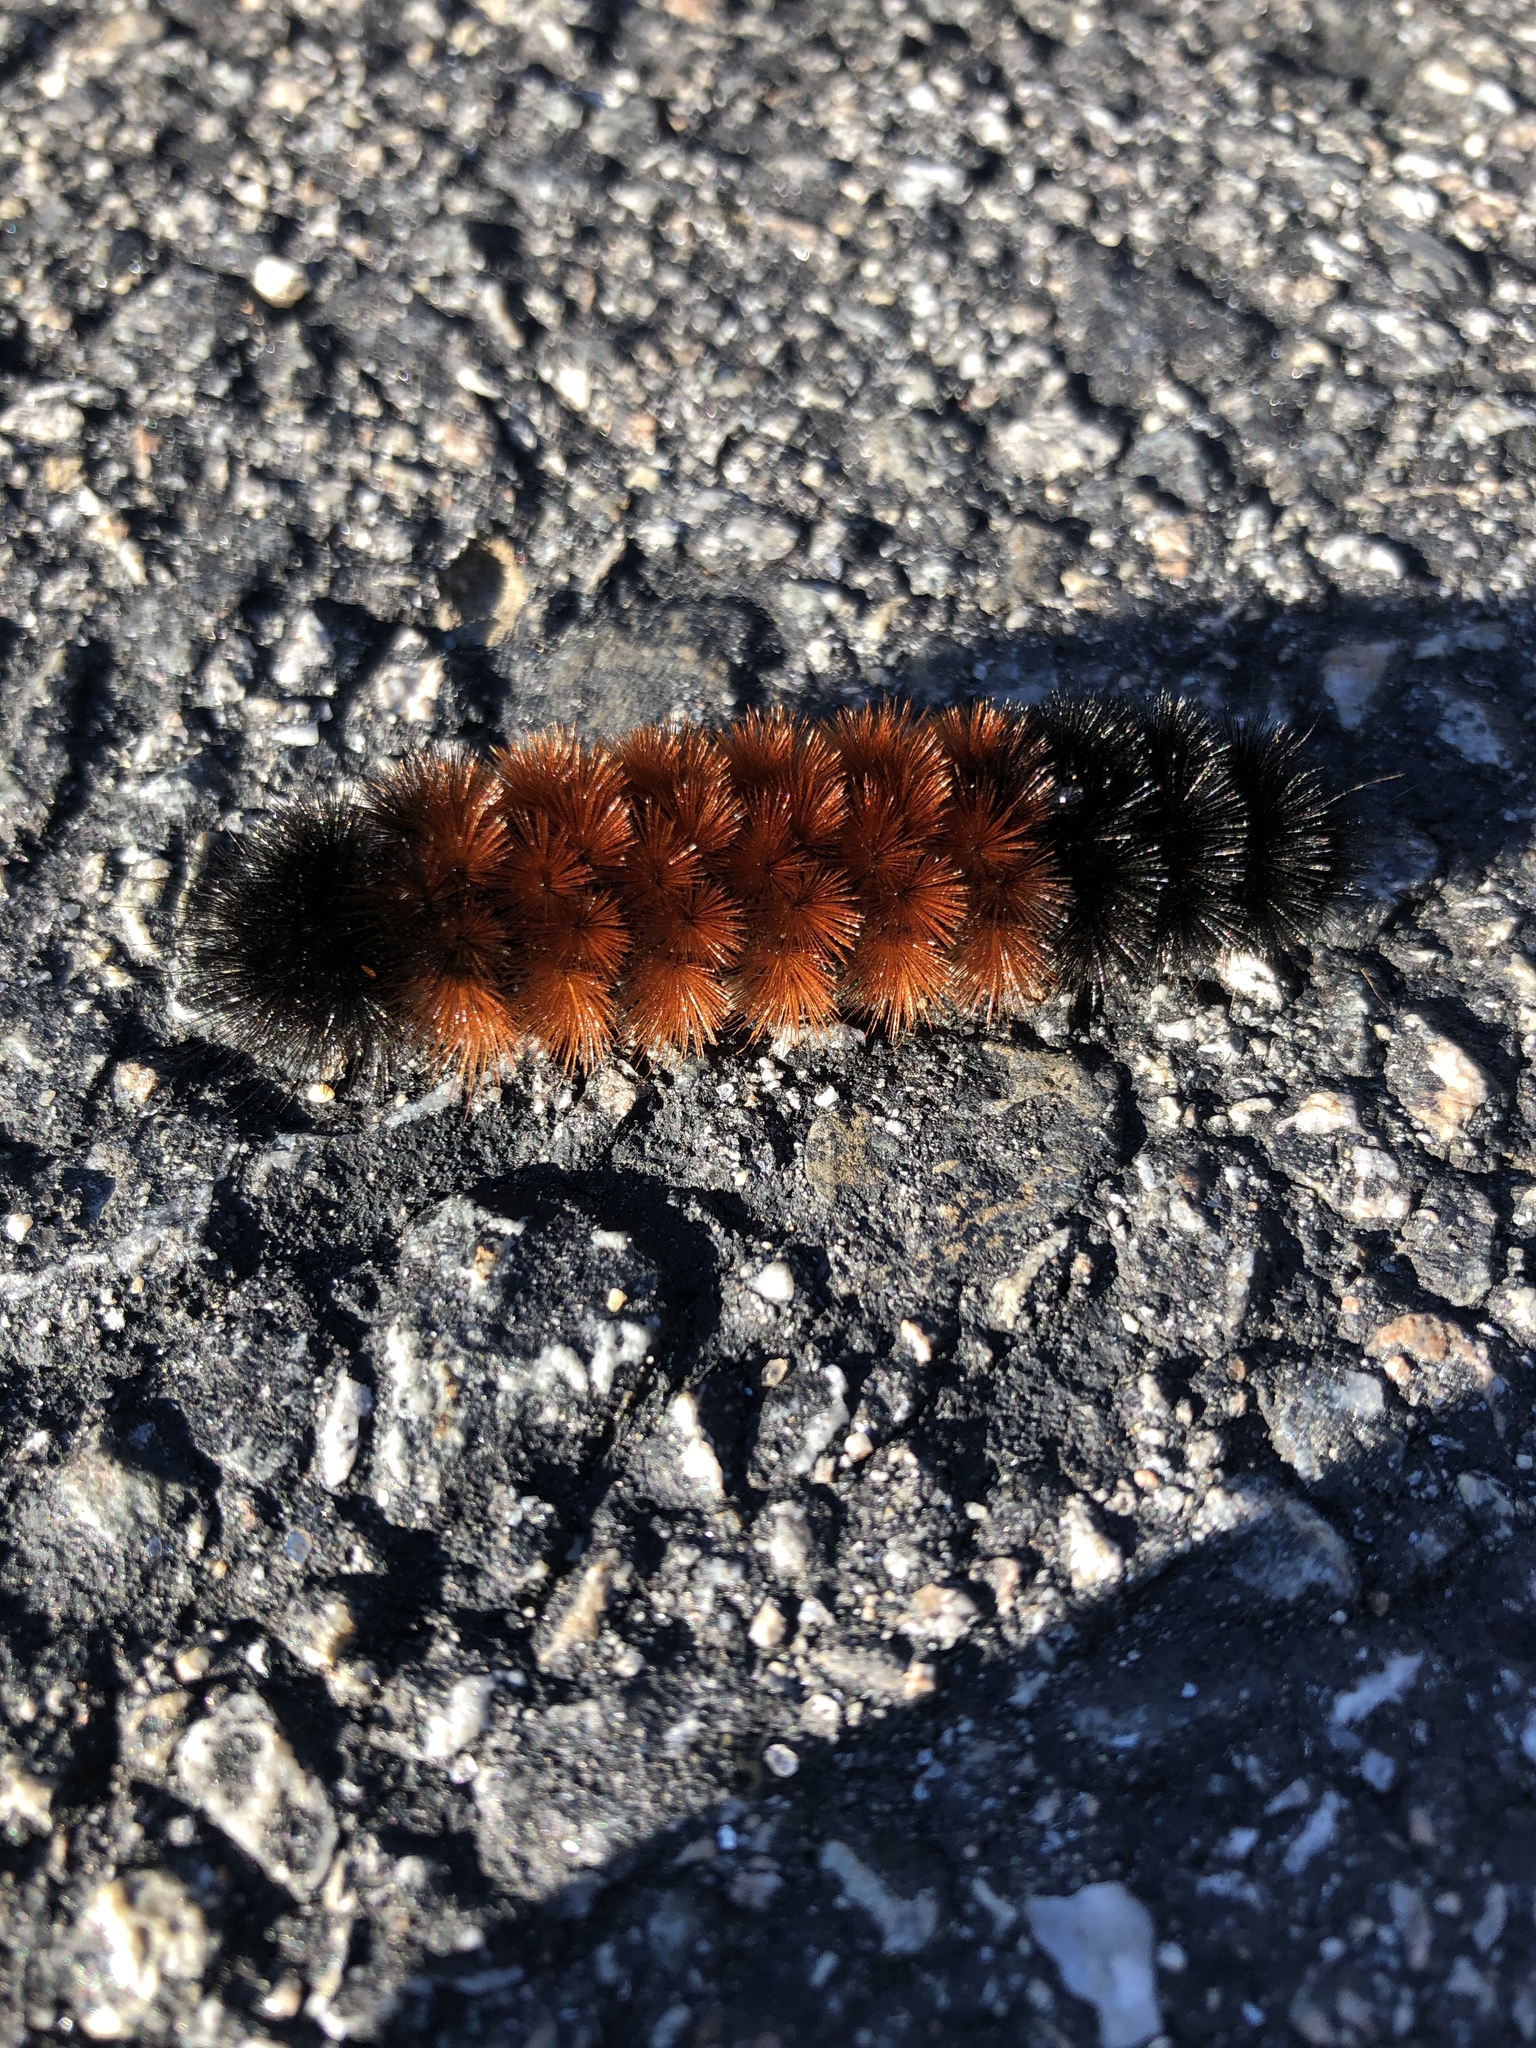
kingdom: Animalia
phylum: Arthropoda
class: Insecta
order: Lepidoptera
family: Erebidae
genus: Pyrrharctia
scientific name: Pyrrharctia isabella
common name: Isabella tiger moth
